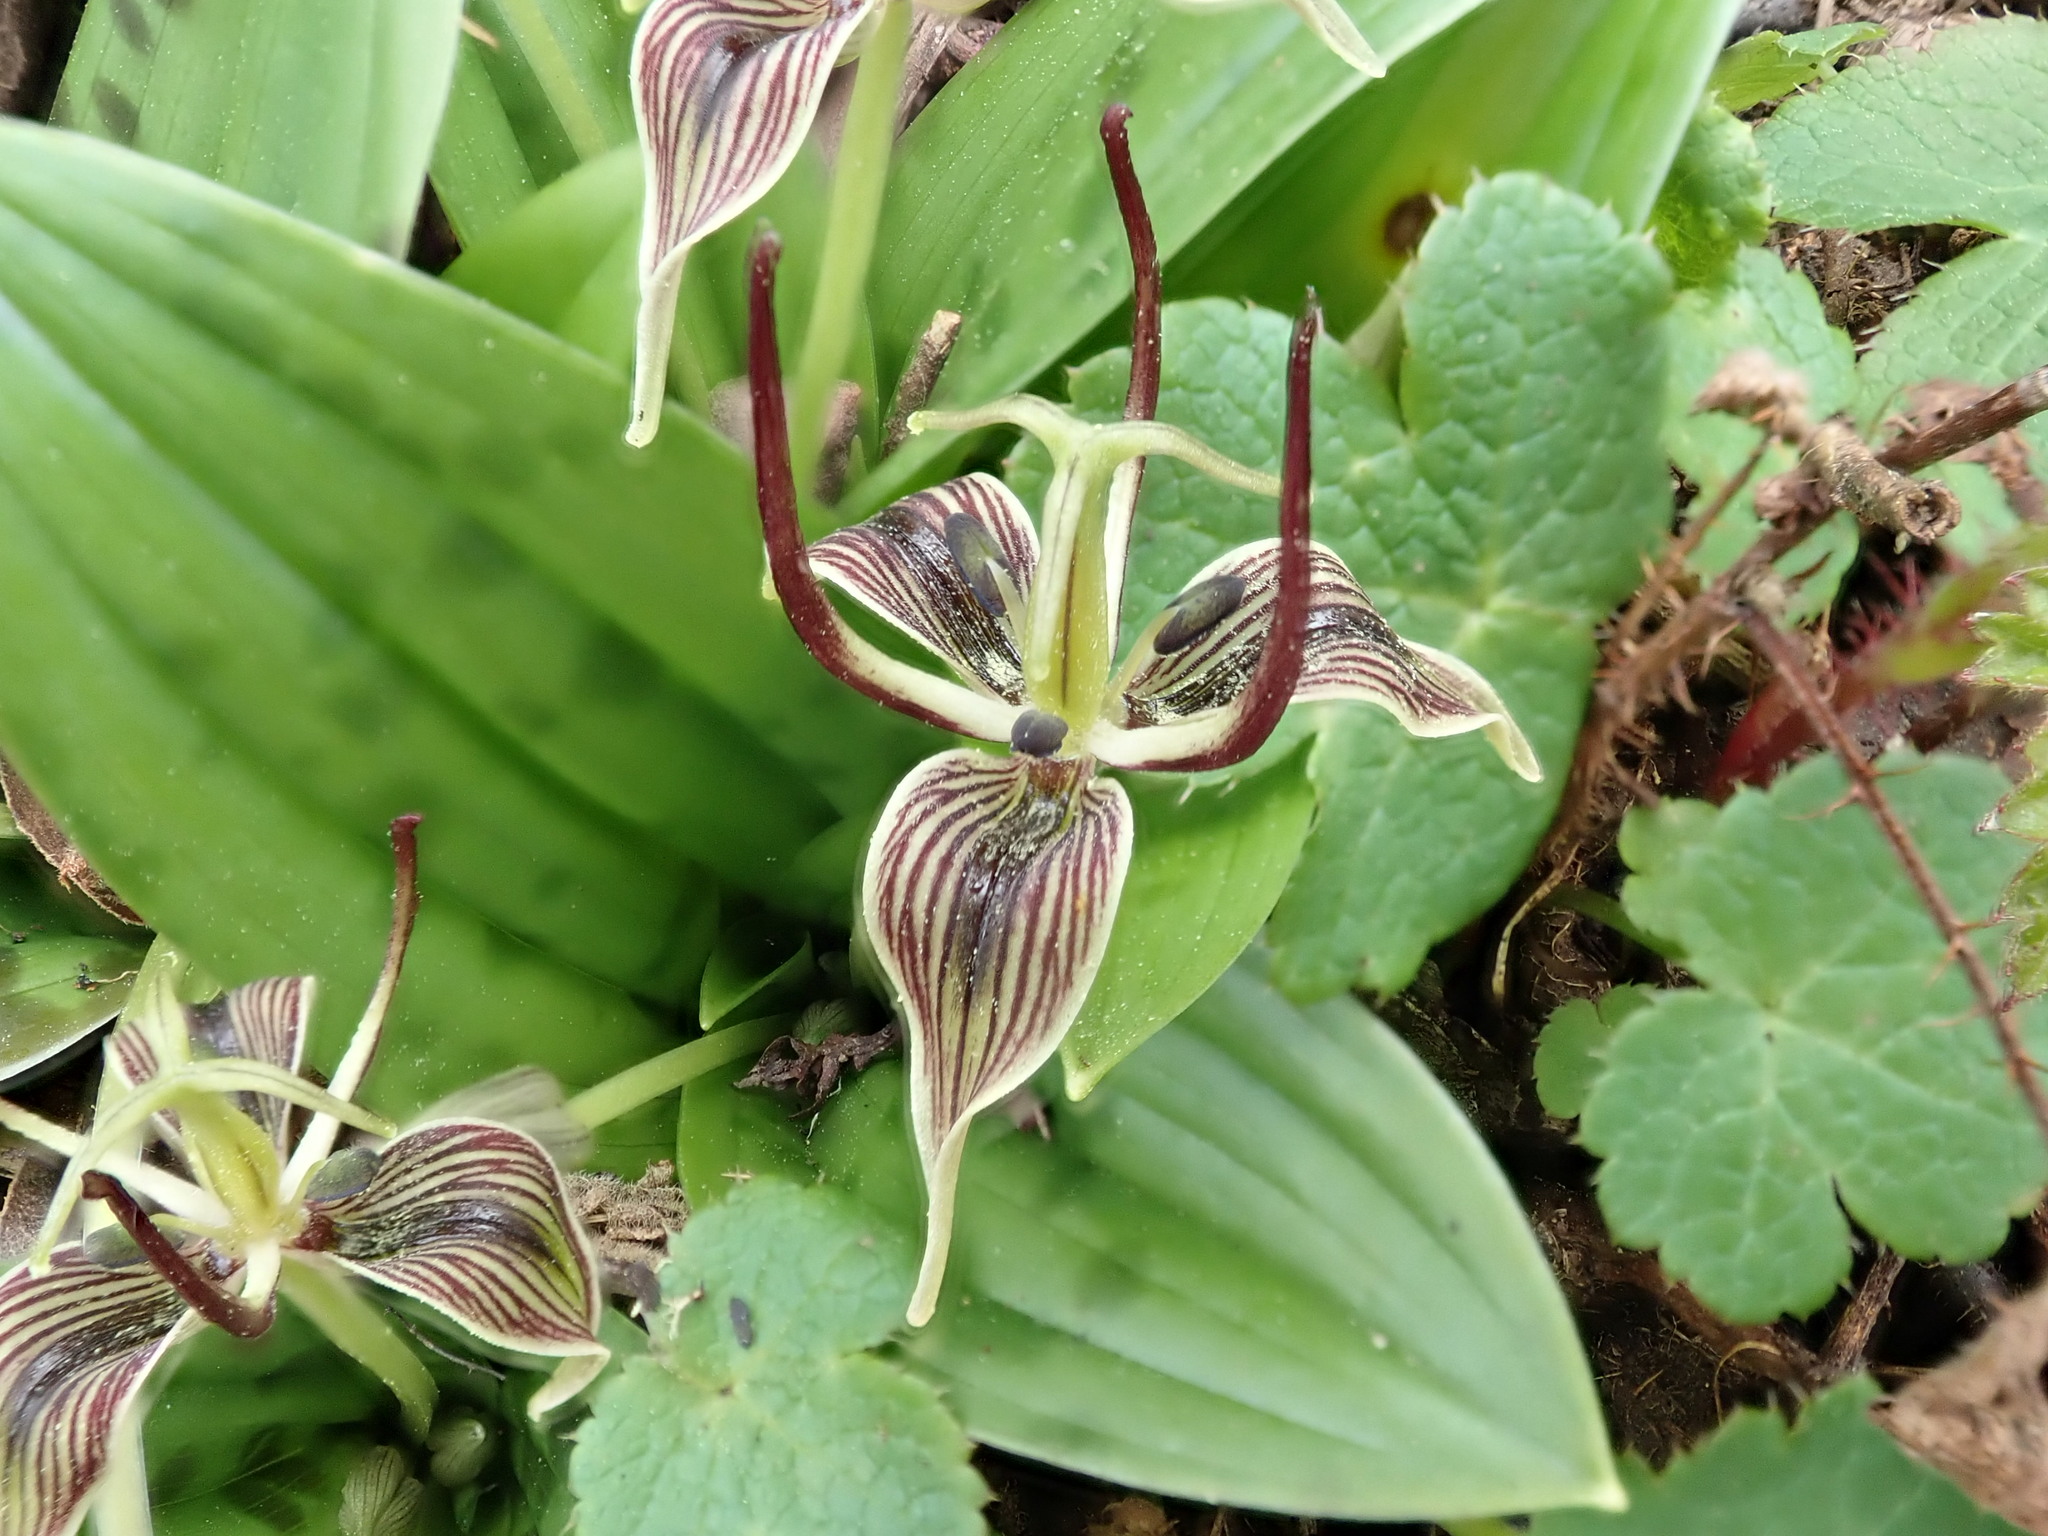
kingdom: Plantae
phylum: Tracheophyta
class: Liliopsida
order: Liliales
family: Liliaceae
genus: Scoliopus
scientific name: Scoliopus bigelovii
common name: Foetid adder's-tongue
